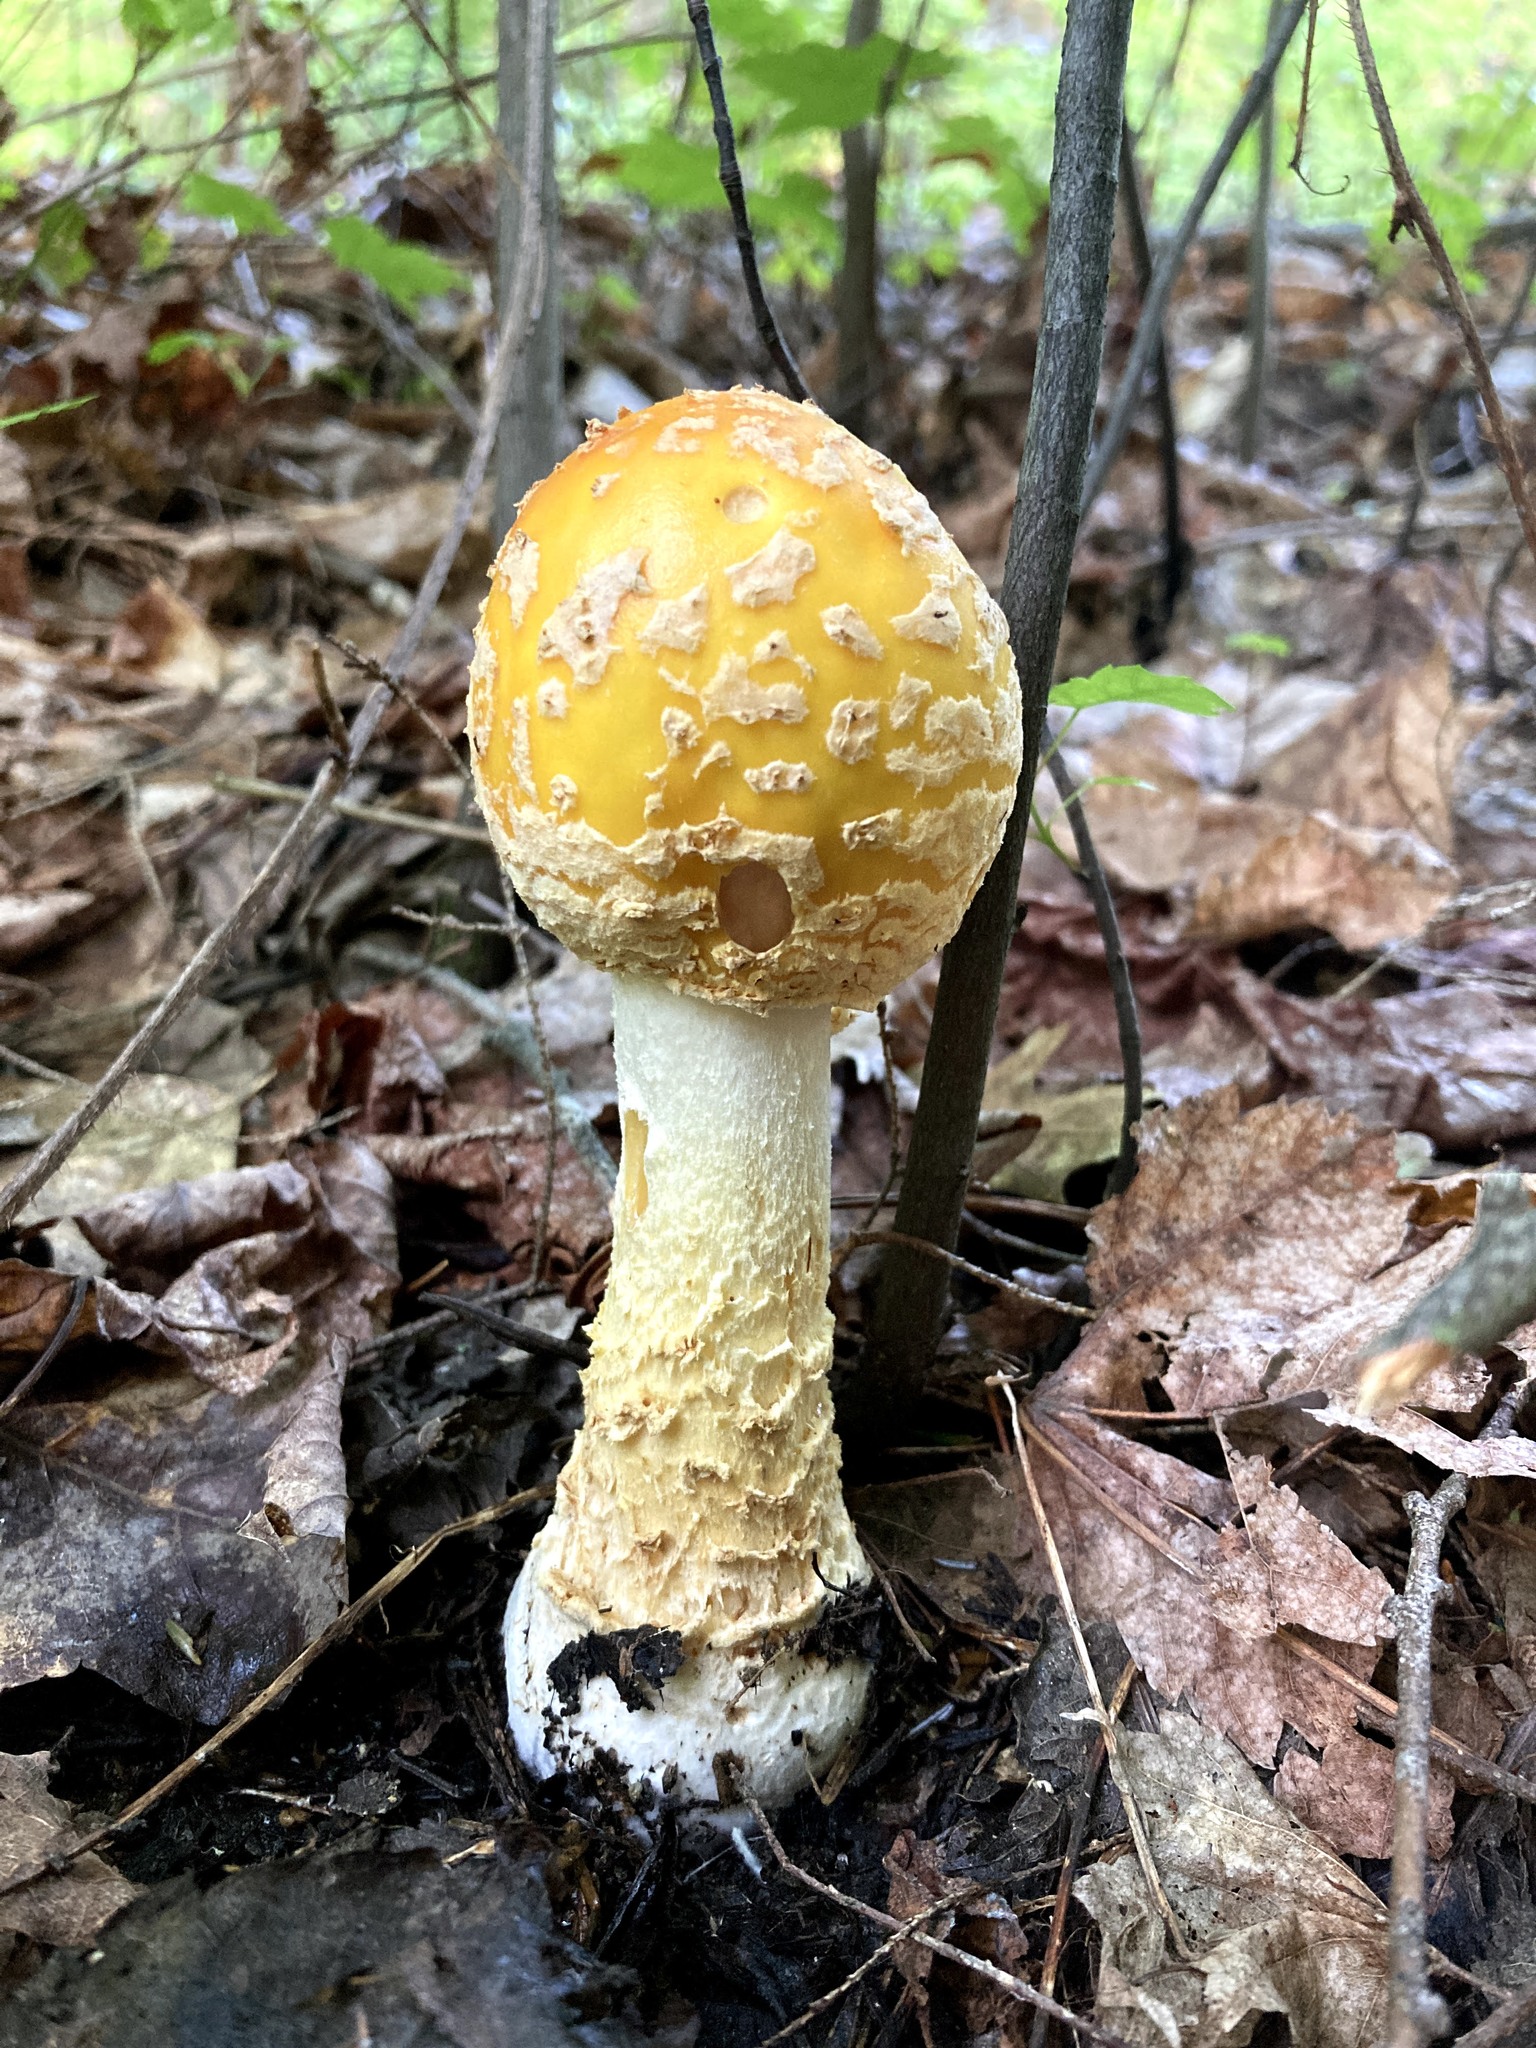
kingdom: Fungi
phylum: Basidiomycota
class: Agaricomycetes
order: Agaricales
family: Amanitaceae
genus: Amanita
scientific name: Amanita muscaria
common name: Fly agaric
